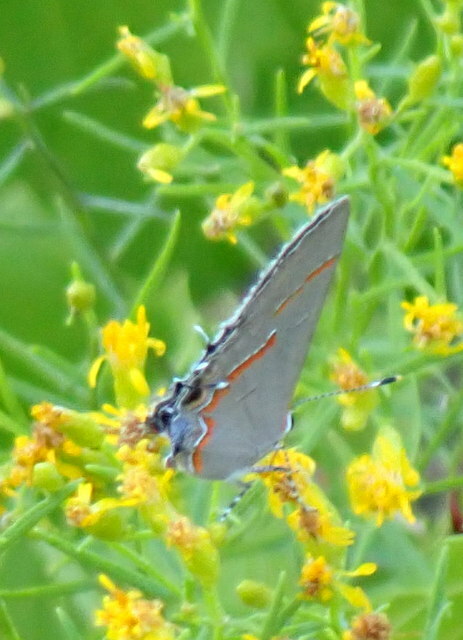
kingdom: Animalia
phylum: Arthropoda
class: Insecta
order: Lepidoptera
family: Lycaenidae
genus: Calycopis
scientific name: Calycopis cecrops
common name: Red-banded hairstreak
